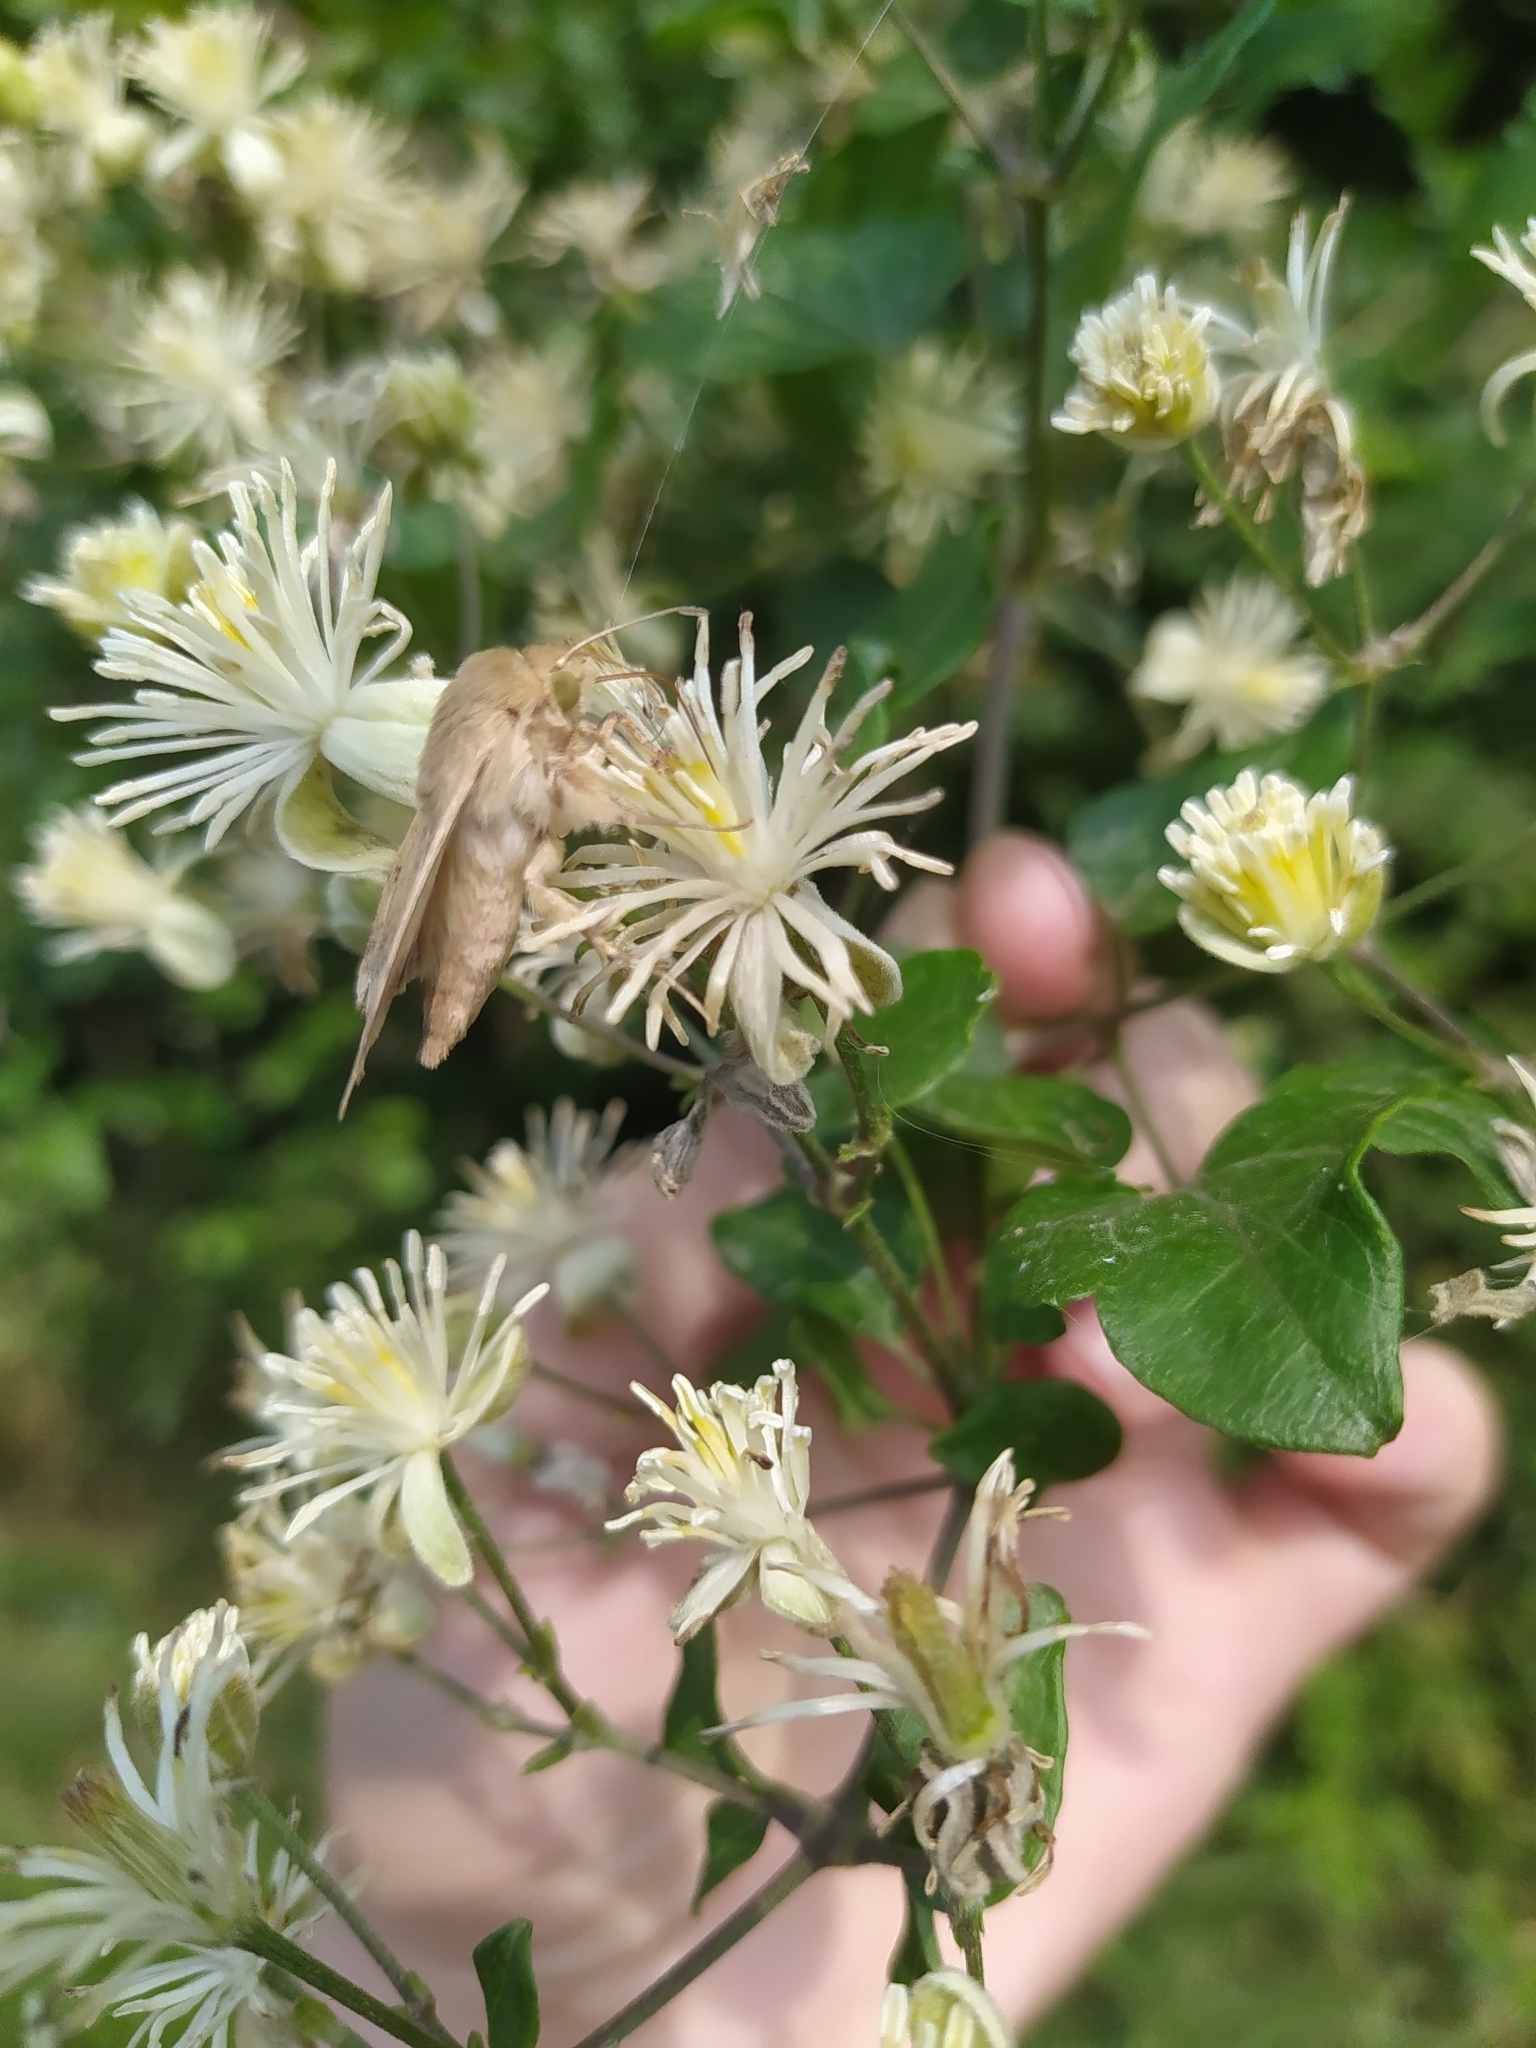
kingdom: Animalia
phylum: Arthropoda
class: Insecta
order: Lepidoptera
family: Noctuidae
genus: Helicoverpa
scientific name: Helicoverpa armigera
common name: Cotton bollworm
